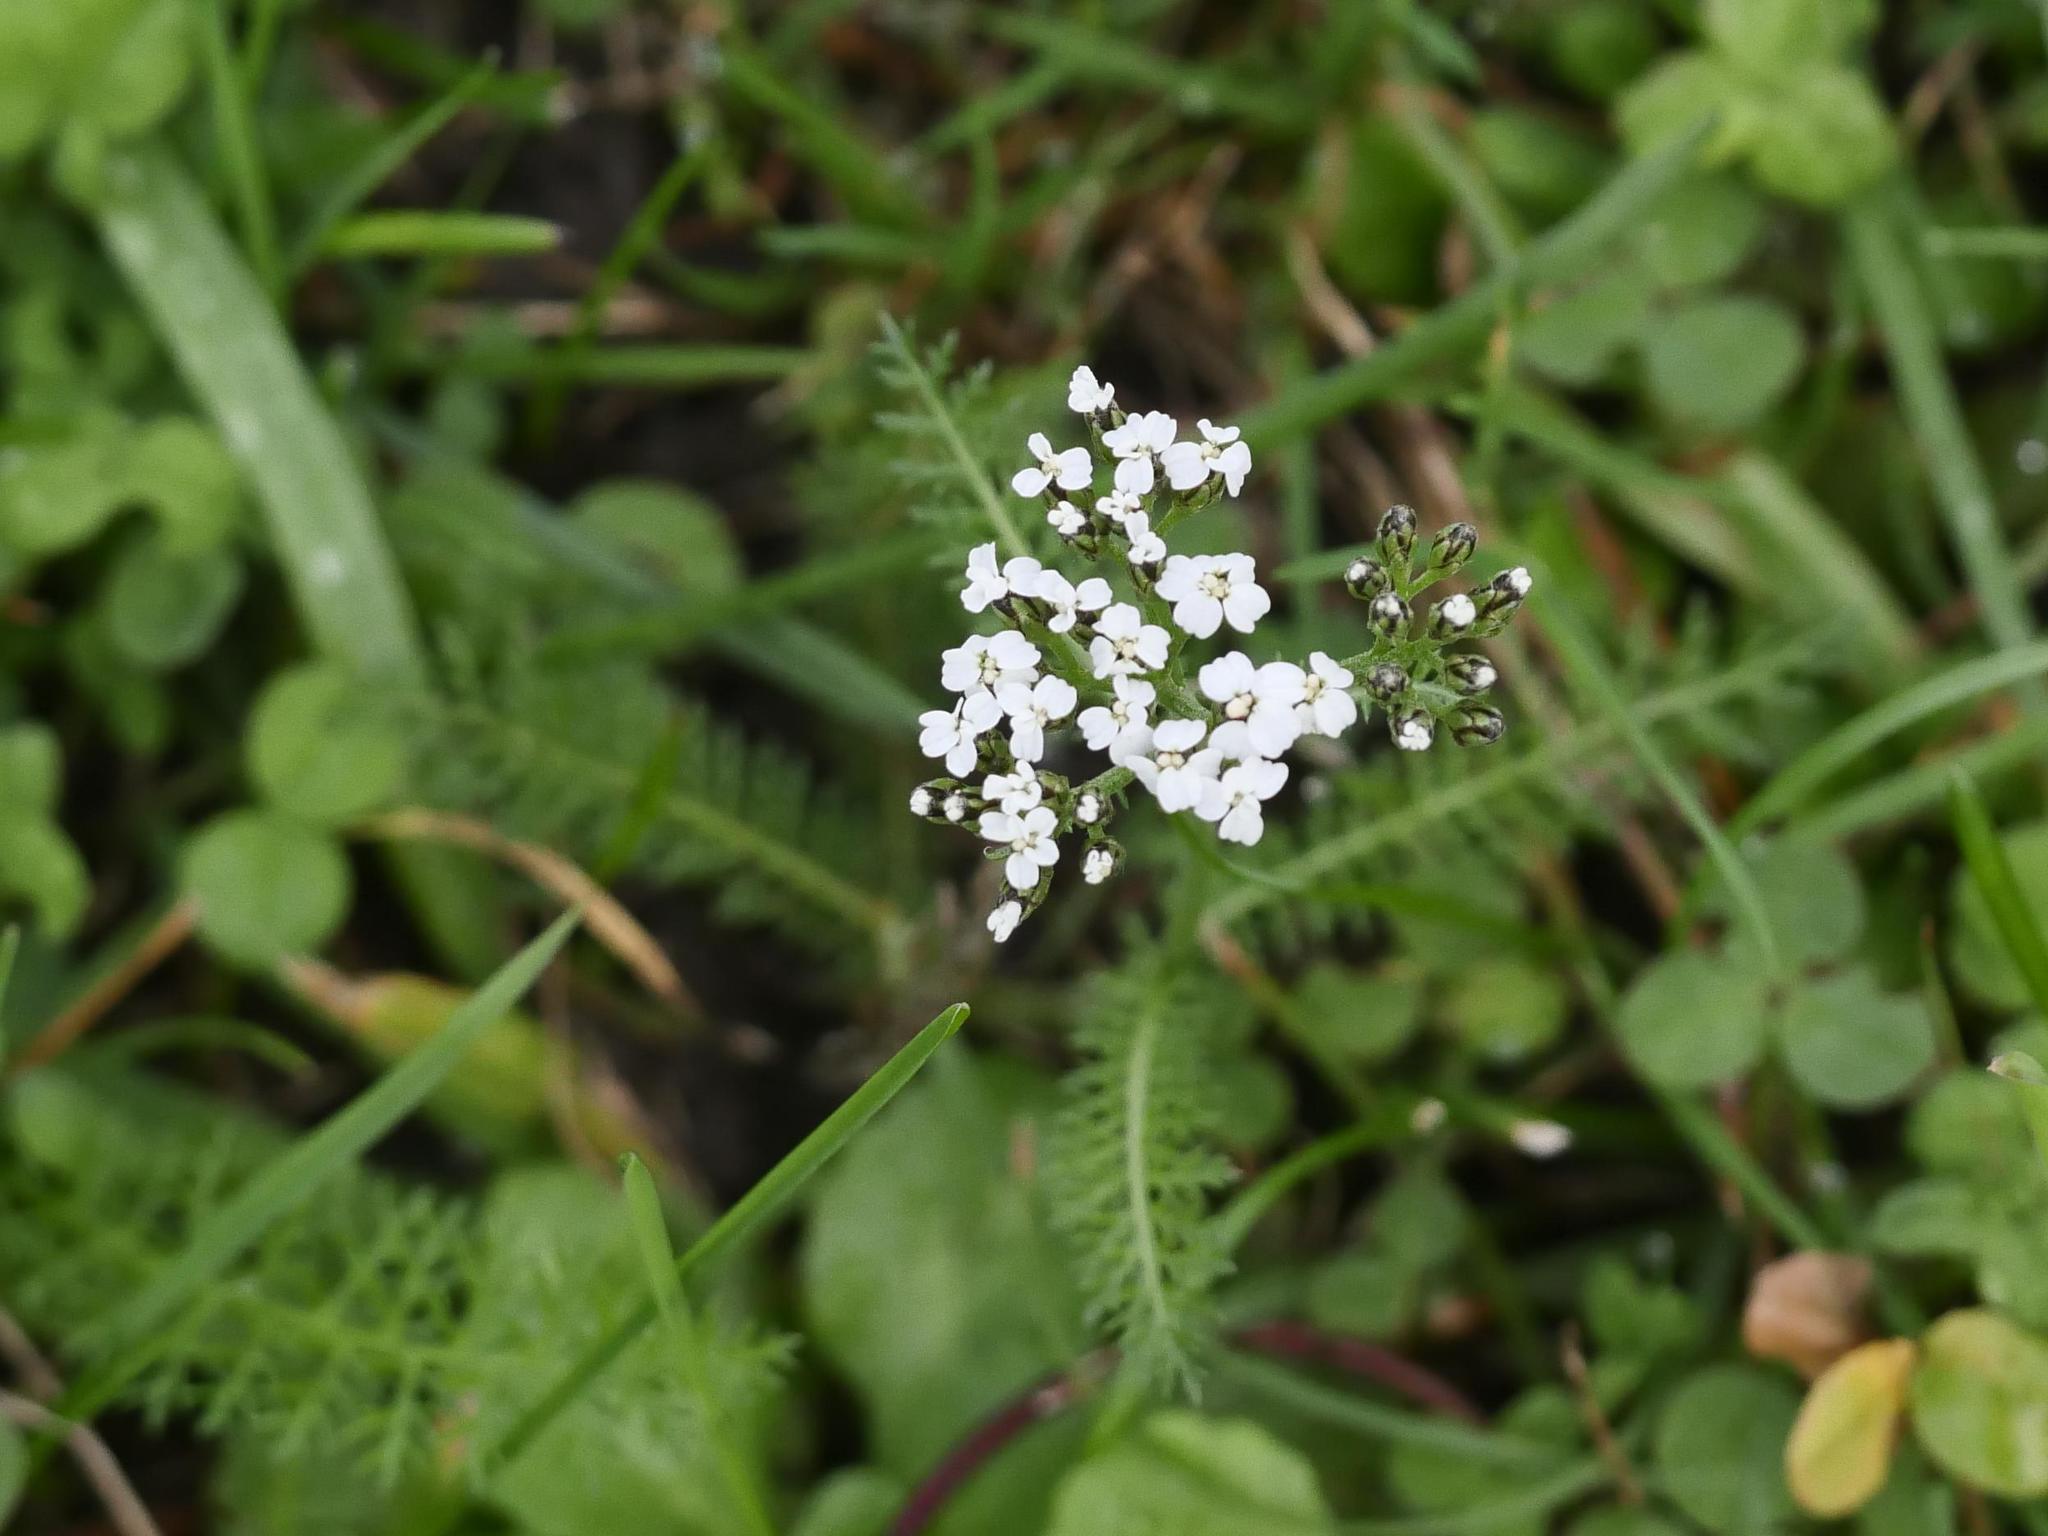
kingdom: Plantae
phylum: Tracheophyta
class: Magnoliopsida
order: Asterales
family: Asteraceae
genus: Achillea
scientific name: Achillea millefolium
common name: Yarrow
